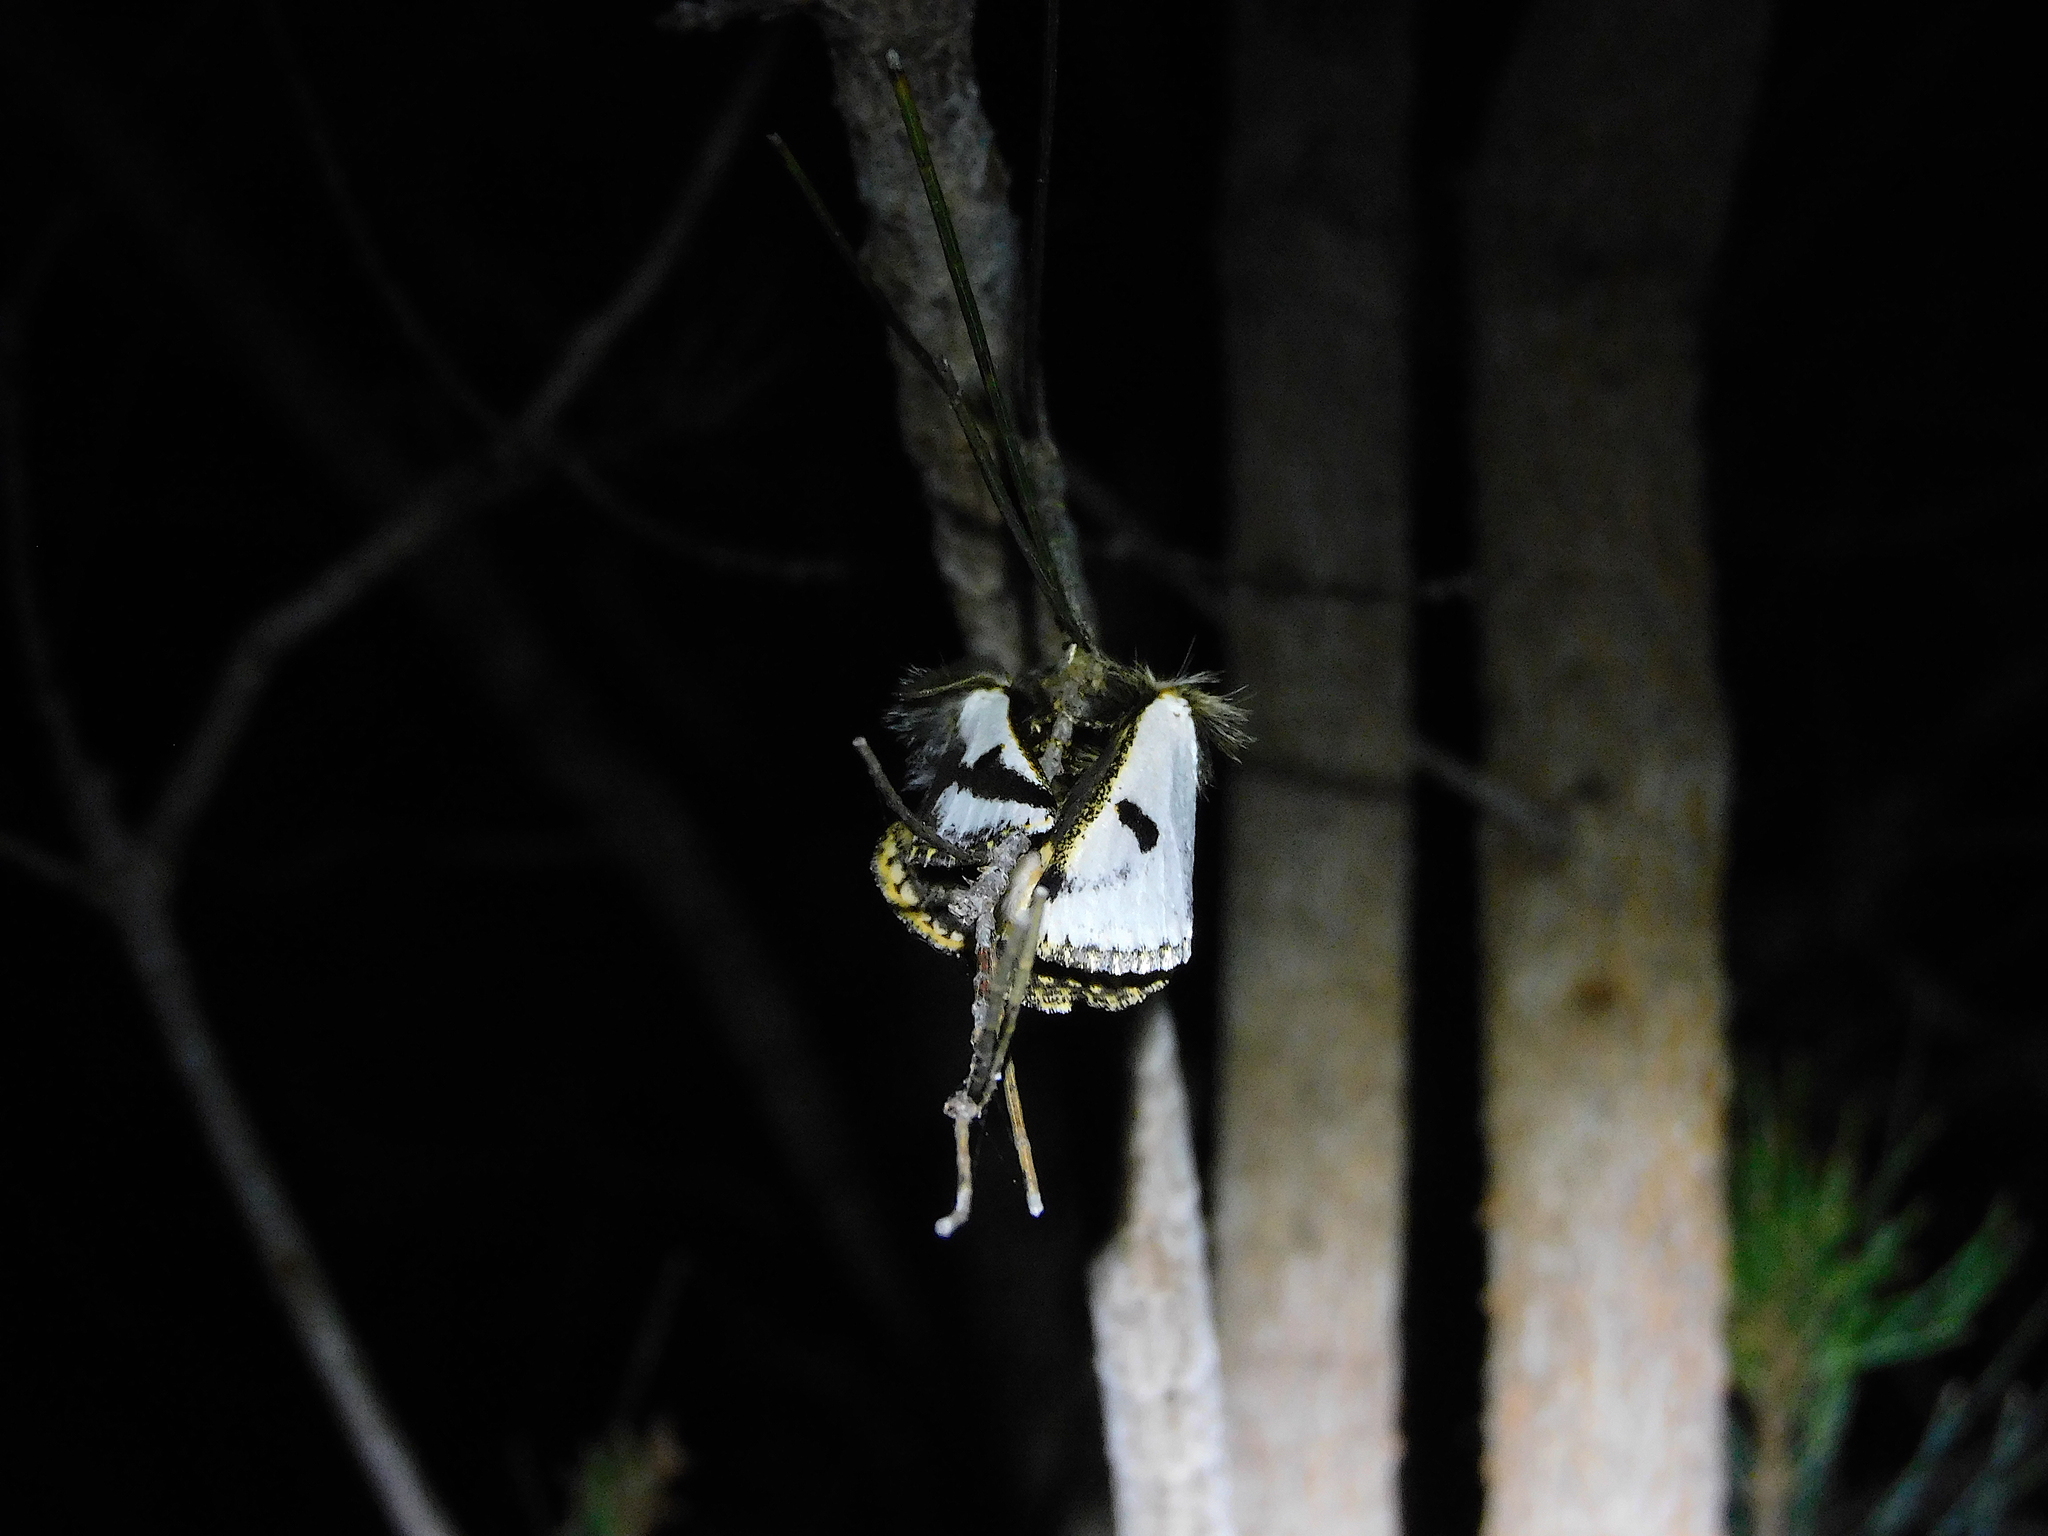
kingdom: Animalia
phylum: Arthropoda
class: Insecta
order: Lepidoptera
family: Notodontidae
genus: Epicoma
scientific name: Epicoma melanospila
